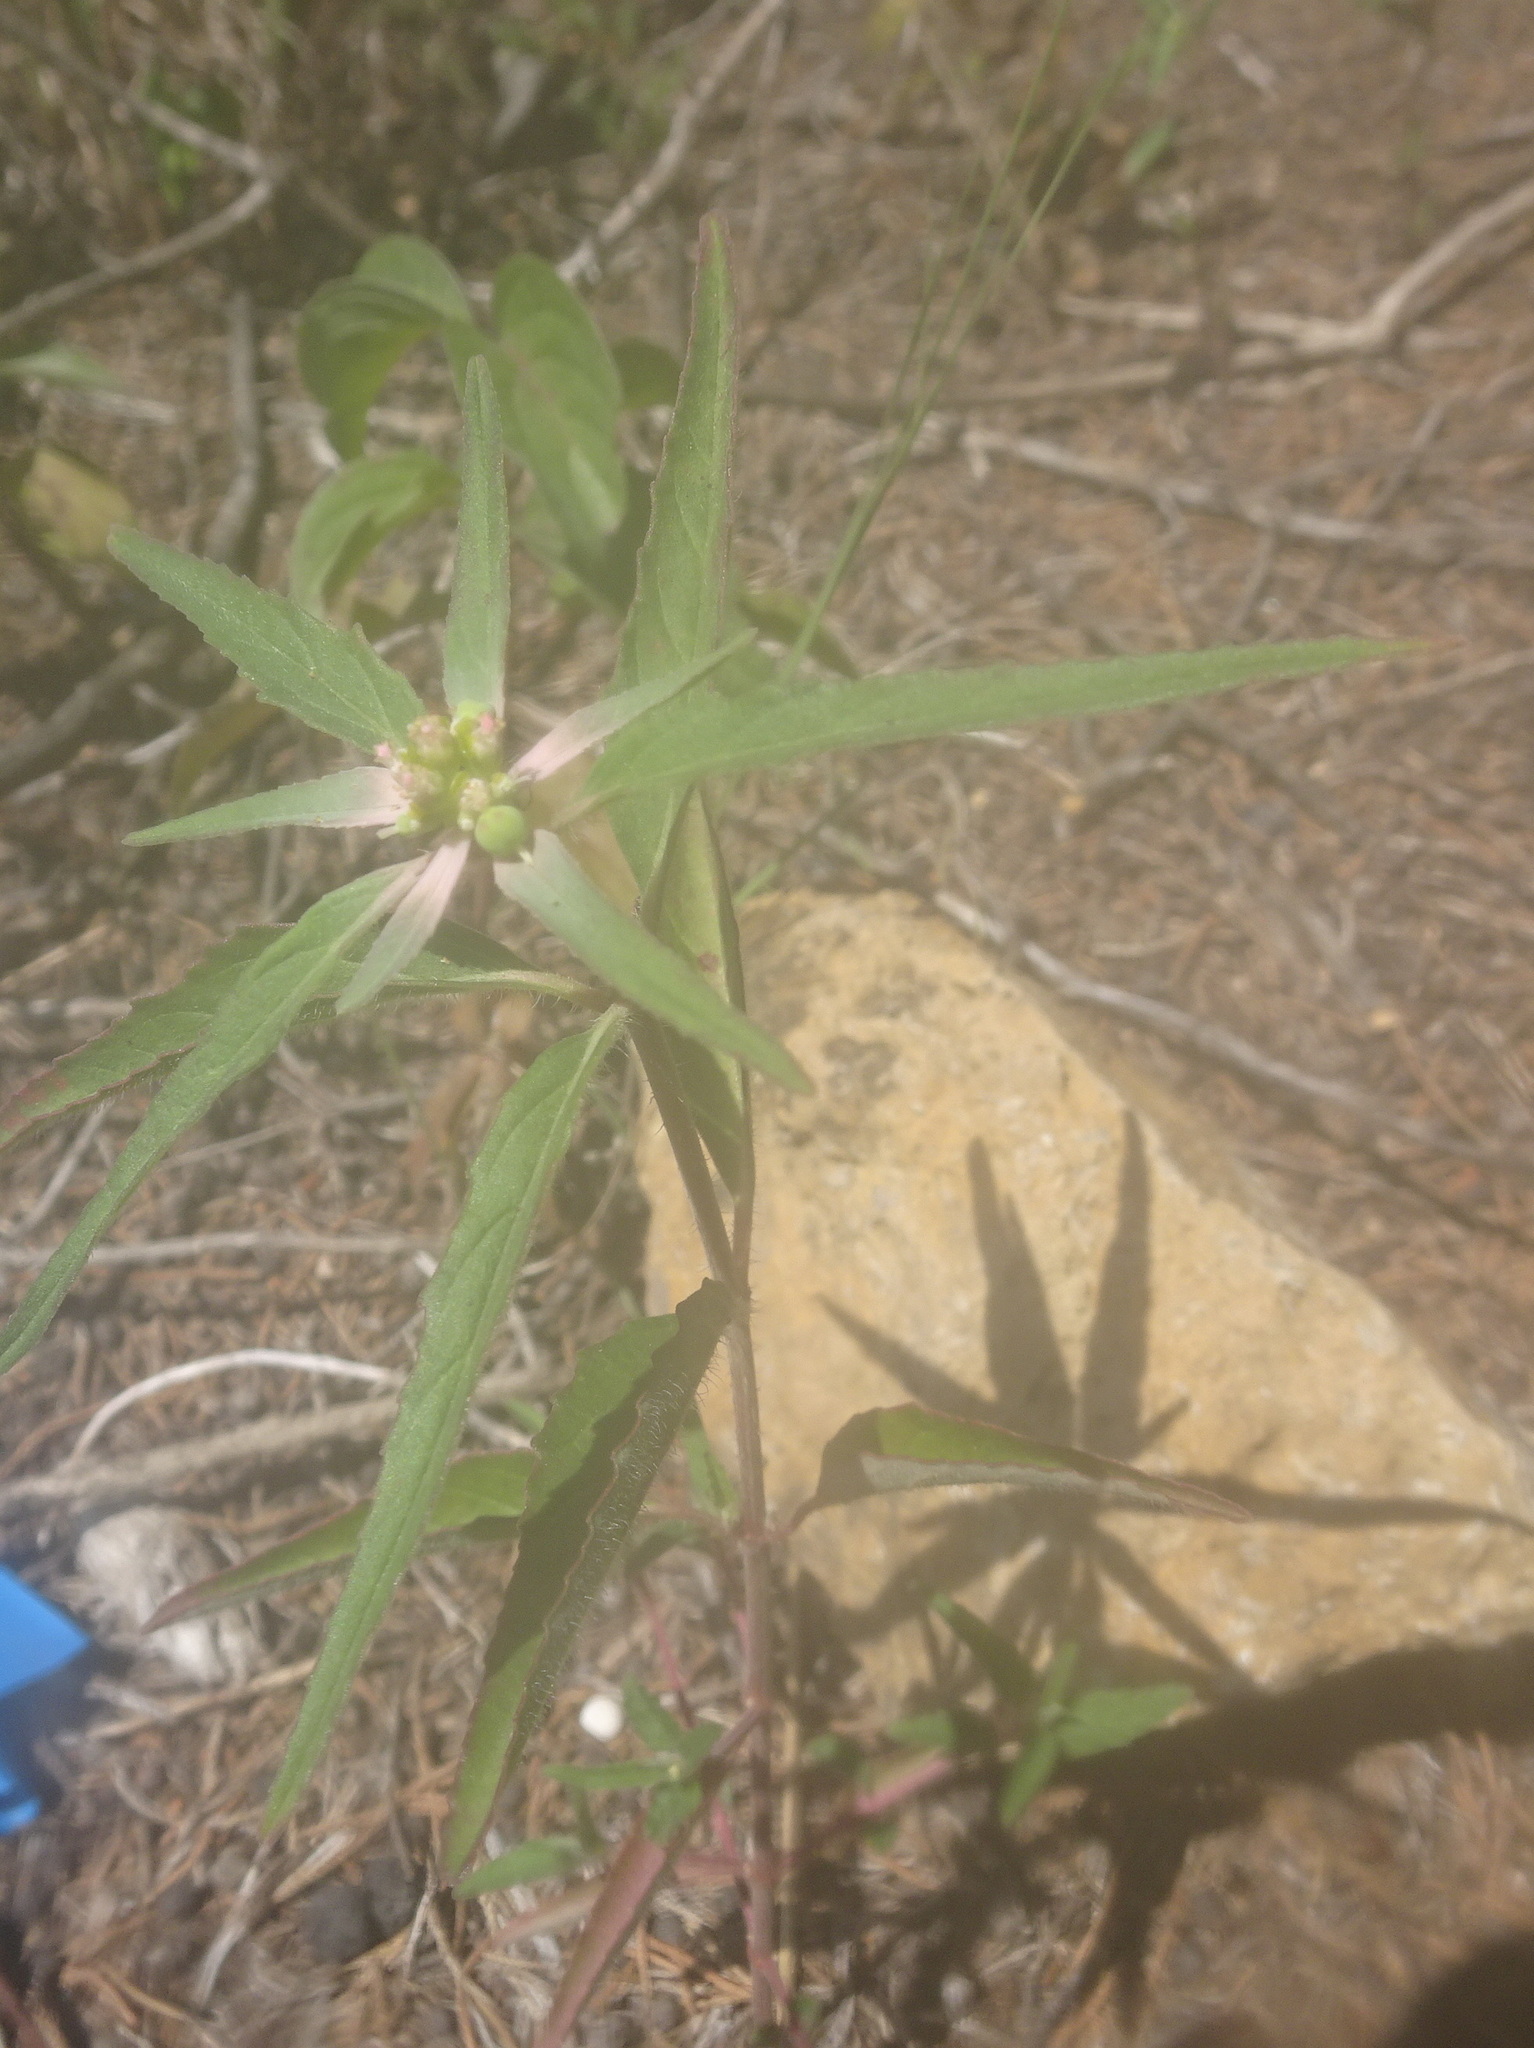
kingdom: Plantae
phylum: Tracheophyta
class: Magnoliopsida
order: Malpighiales
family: Euphorbiaceae
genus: Euphorbia
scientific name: Euphorbia dentata
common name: Dentate spurge
